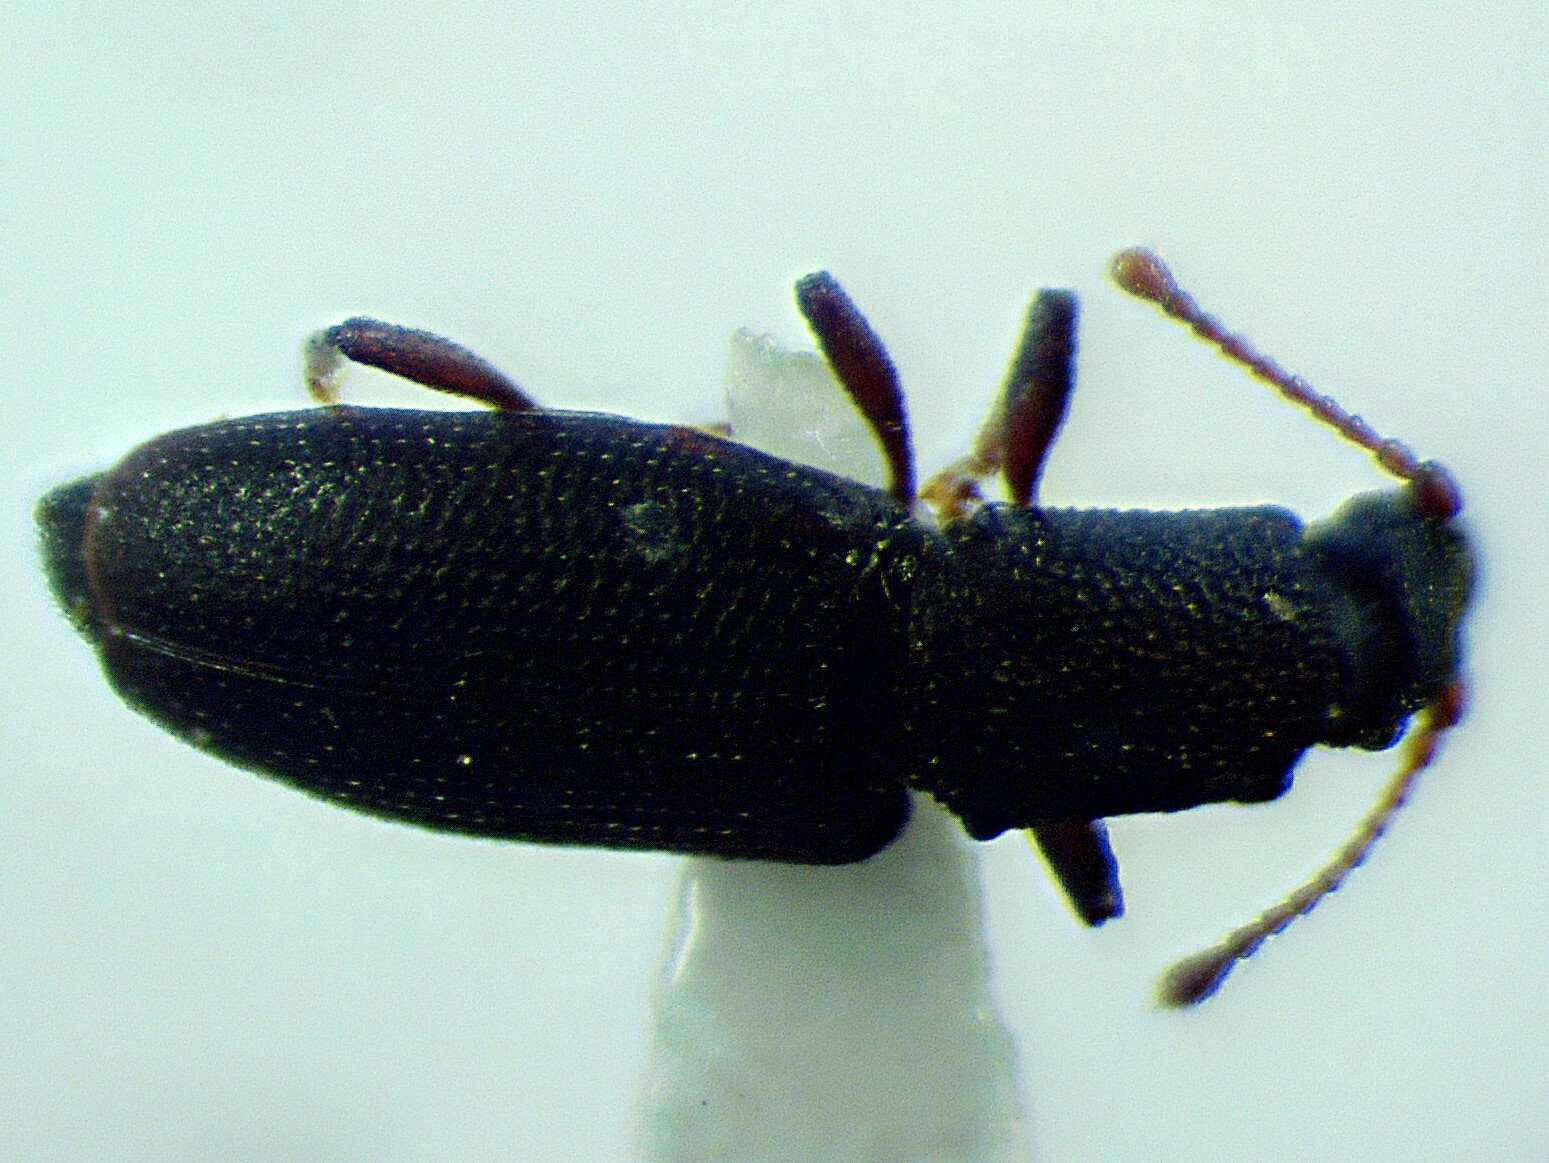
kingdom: Animalia
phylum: Arthropoda
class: Insecta
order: Coleoptera
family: Monotomidae
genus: Monotoma
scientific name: Monotoma producta
